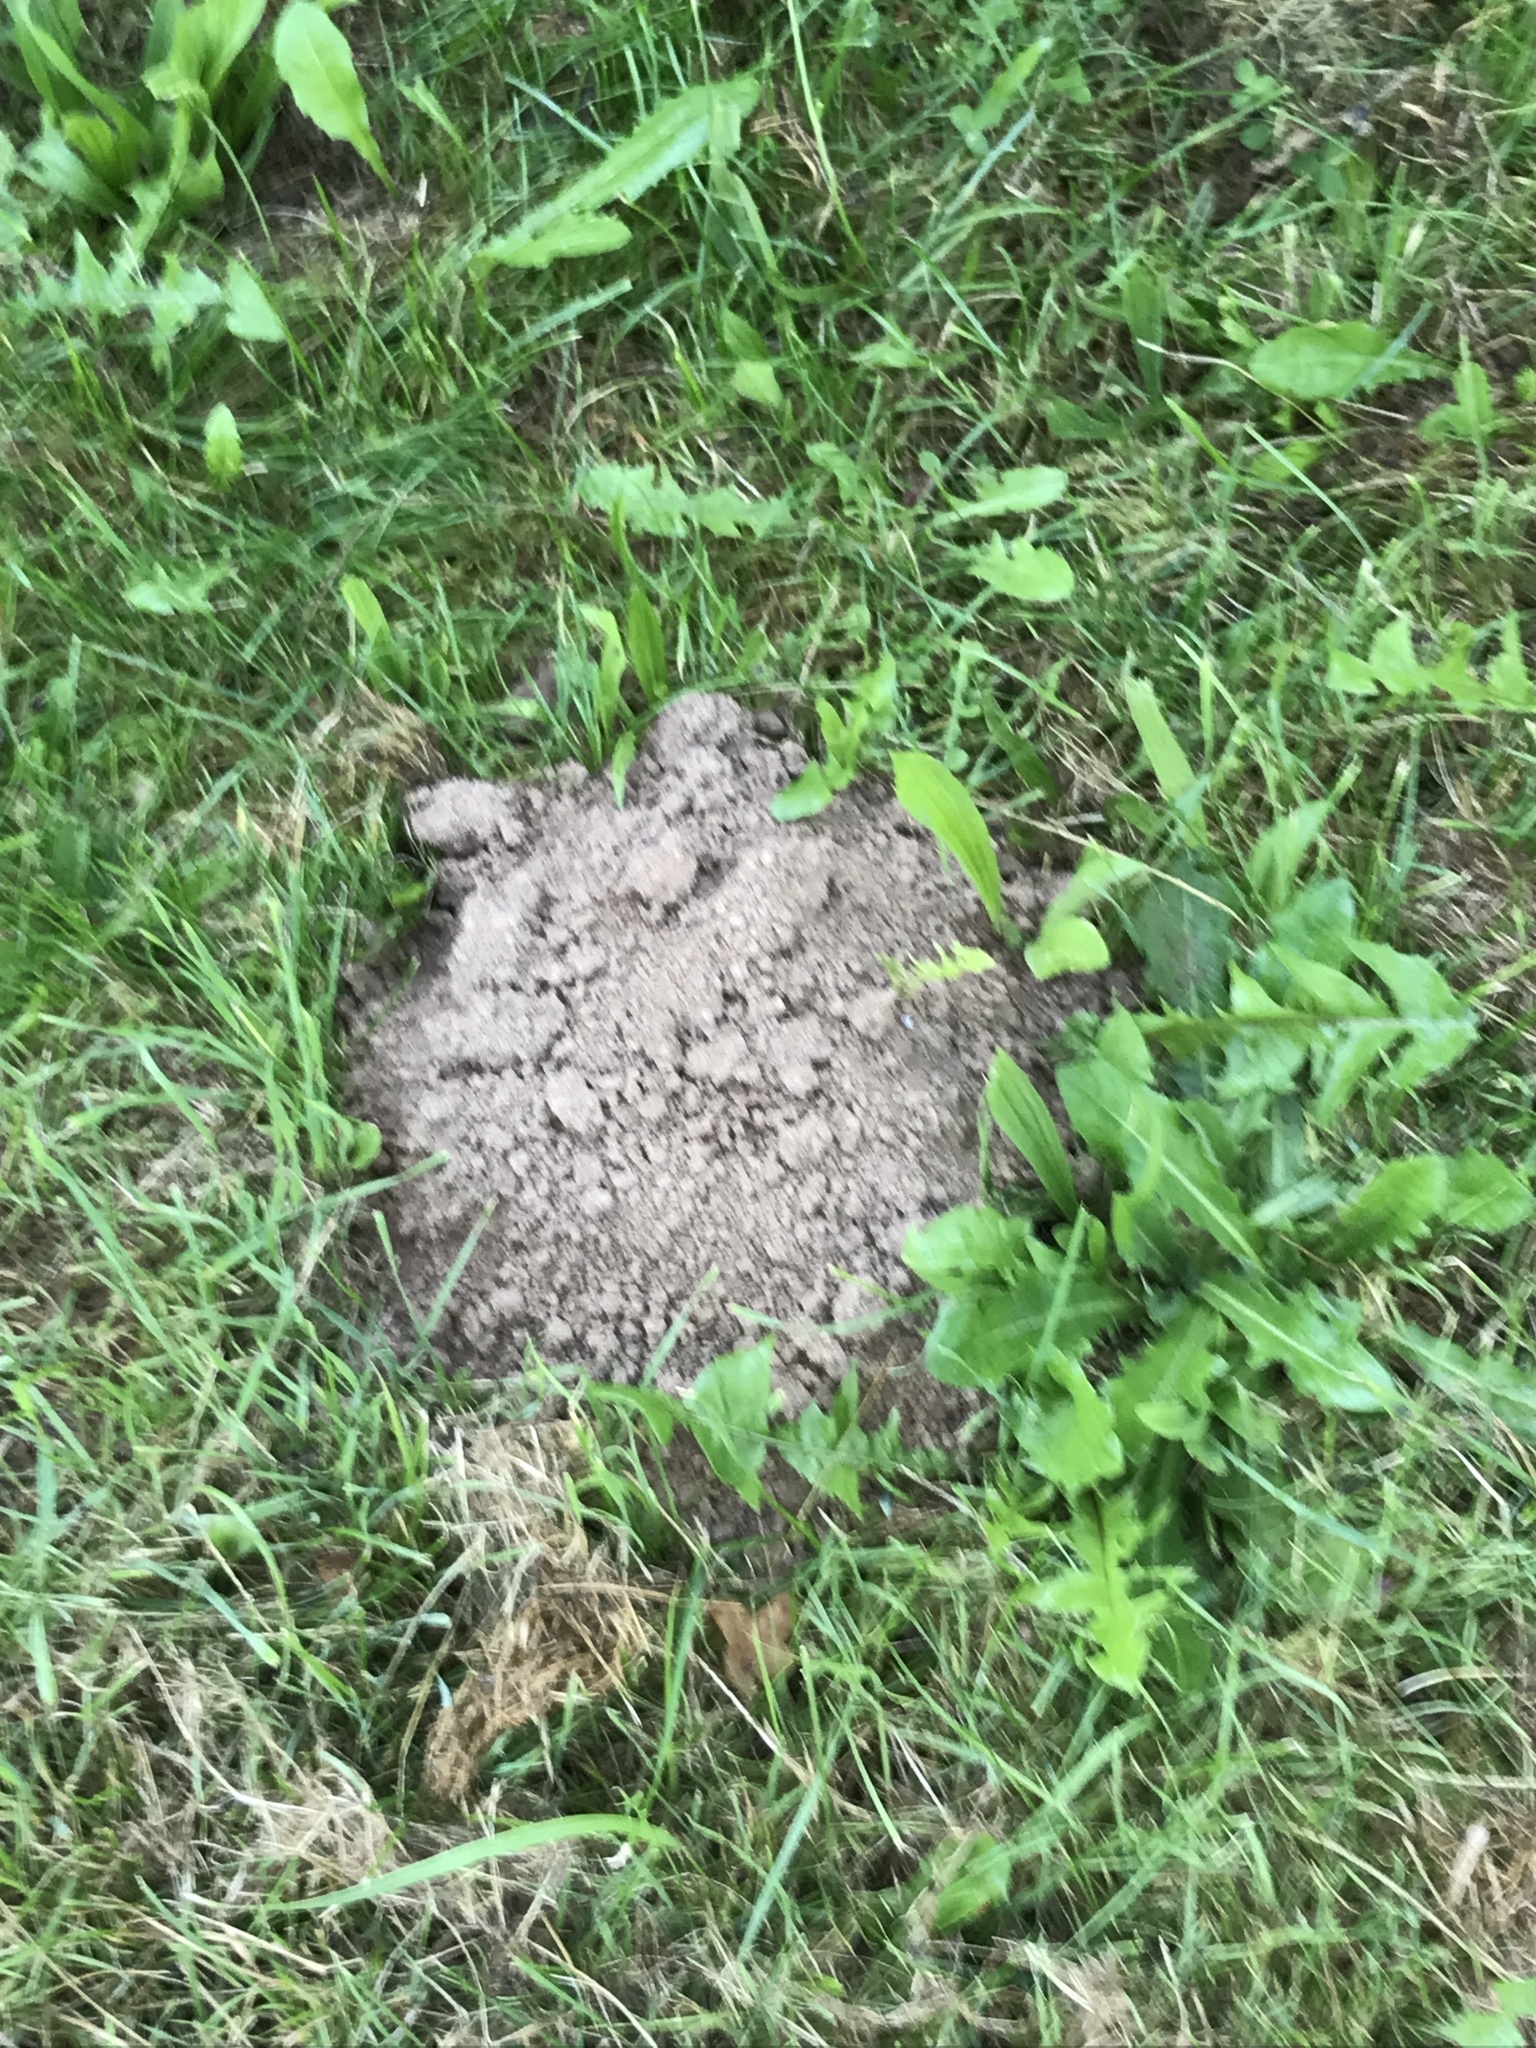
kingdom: Animalia
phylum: Chordata
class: Mammalia
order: Soricomorpha
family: Talpidae
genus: Talpa
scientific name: Talpa europaea
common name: European mole
